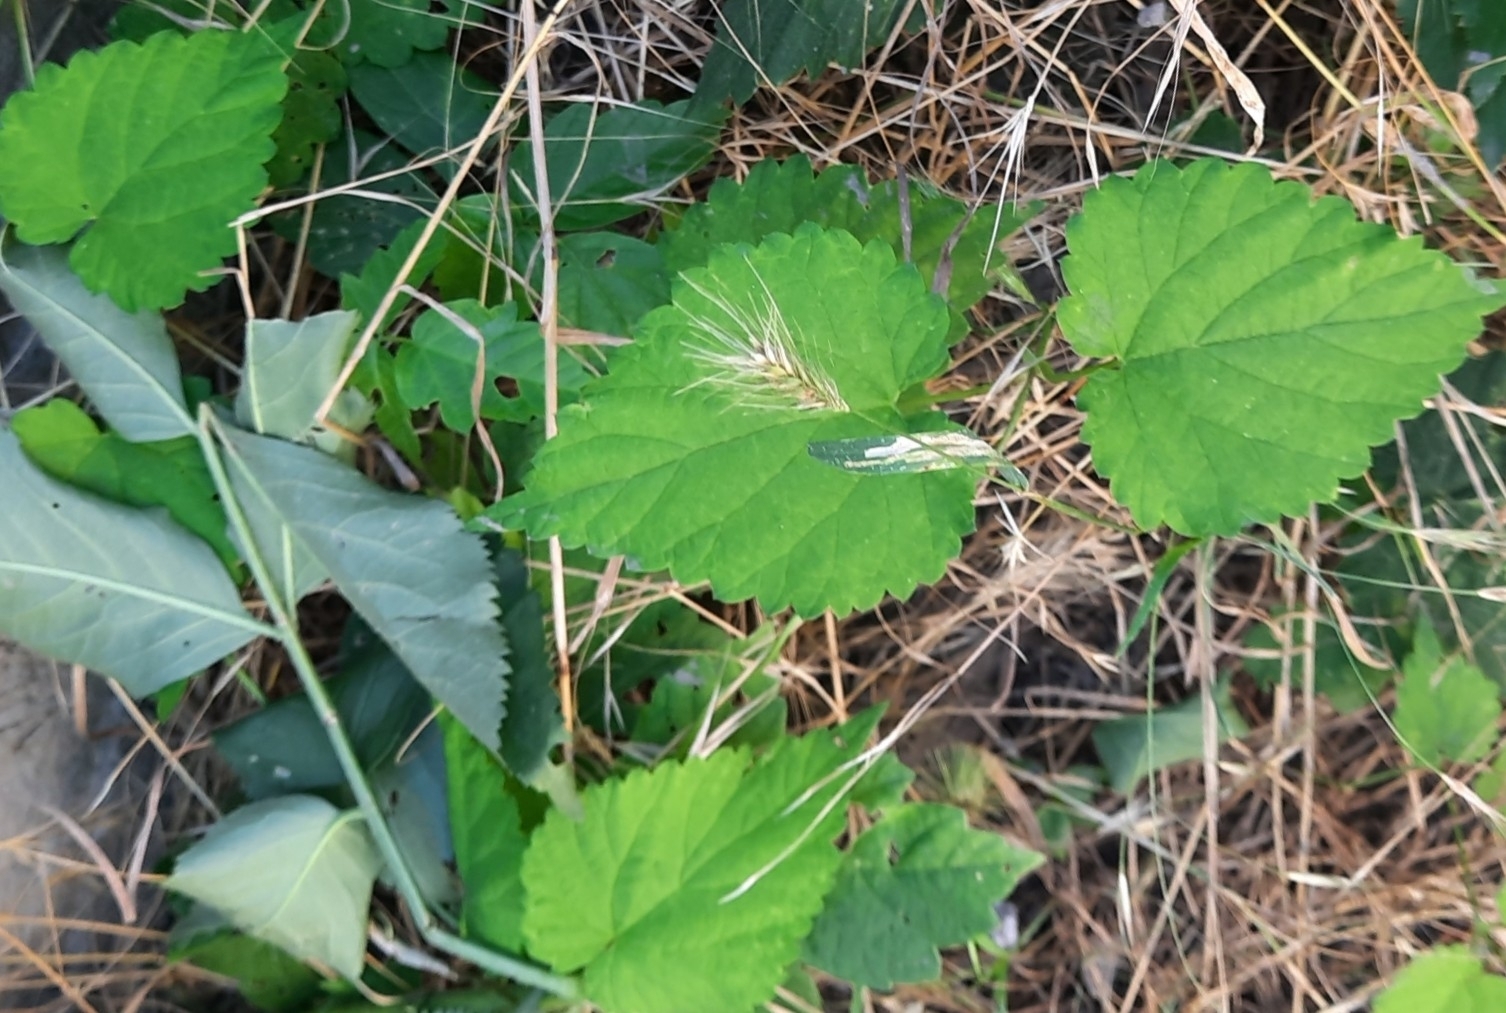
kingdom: Plantae
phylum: Tracheophyta
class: Magnoliopsida
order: Rosales
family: Cannabaceae
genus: Humulus
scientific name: Humulus lupulus
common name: Hop
